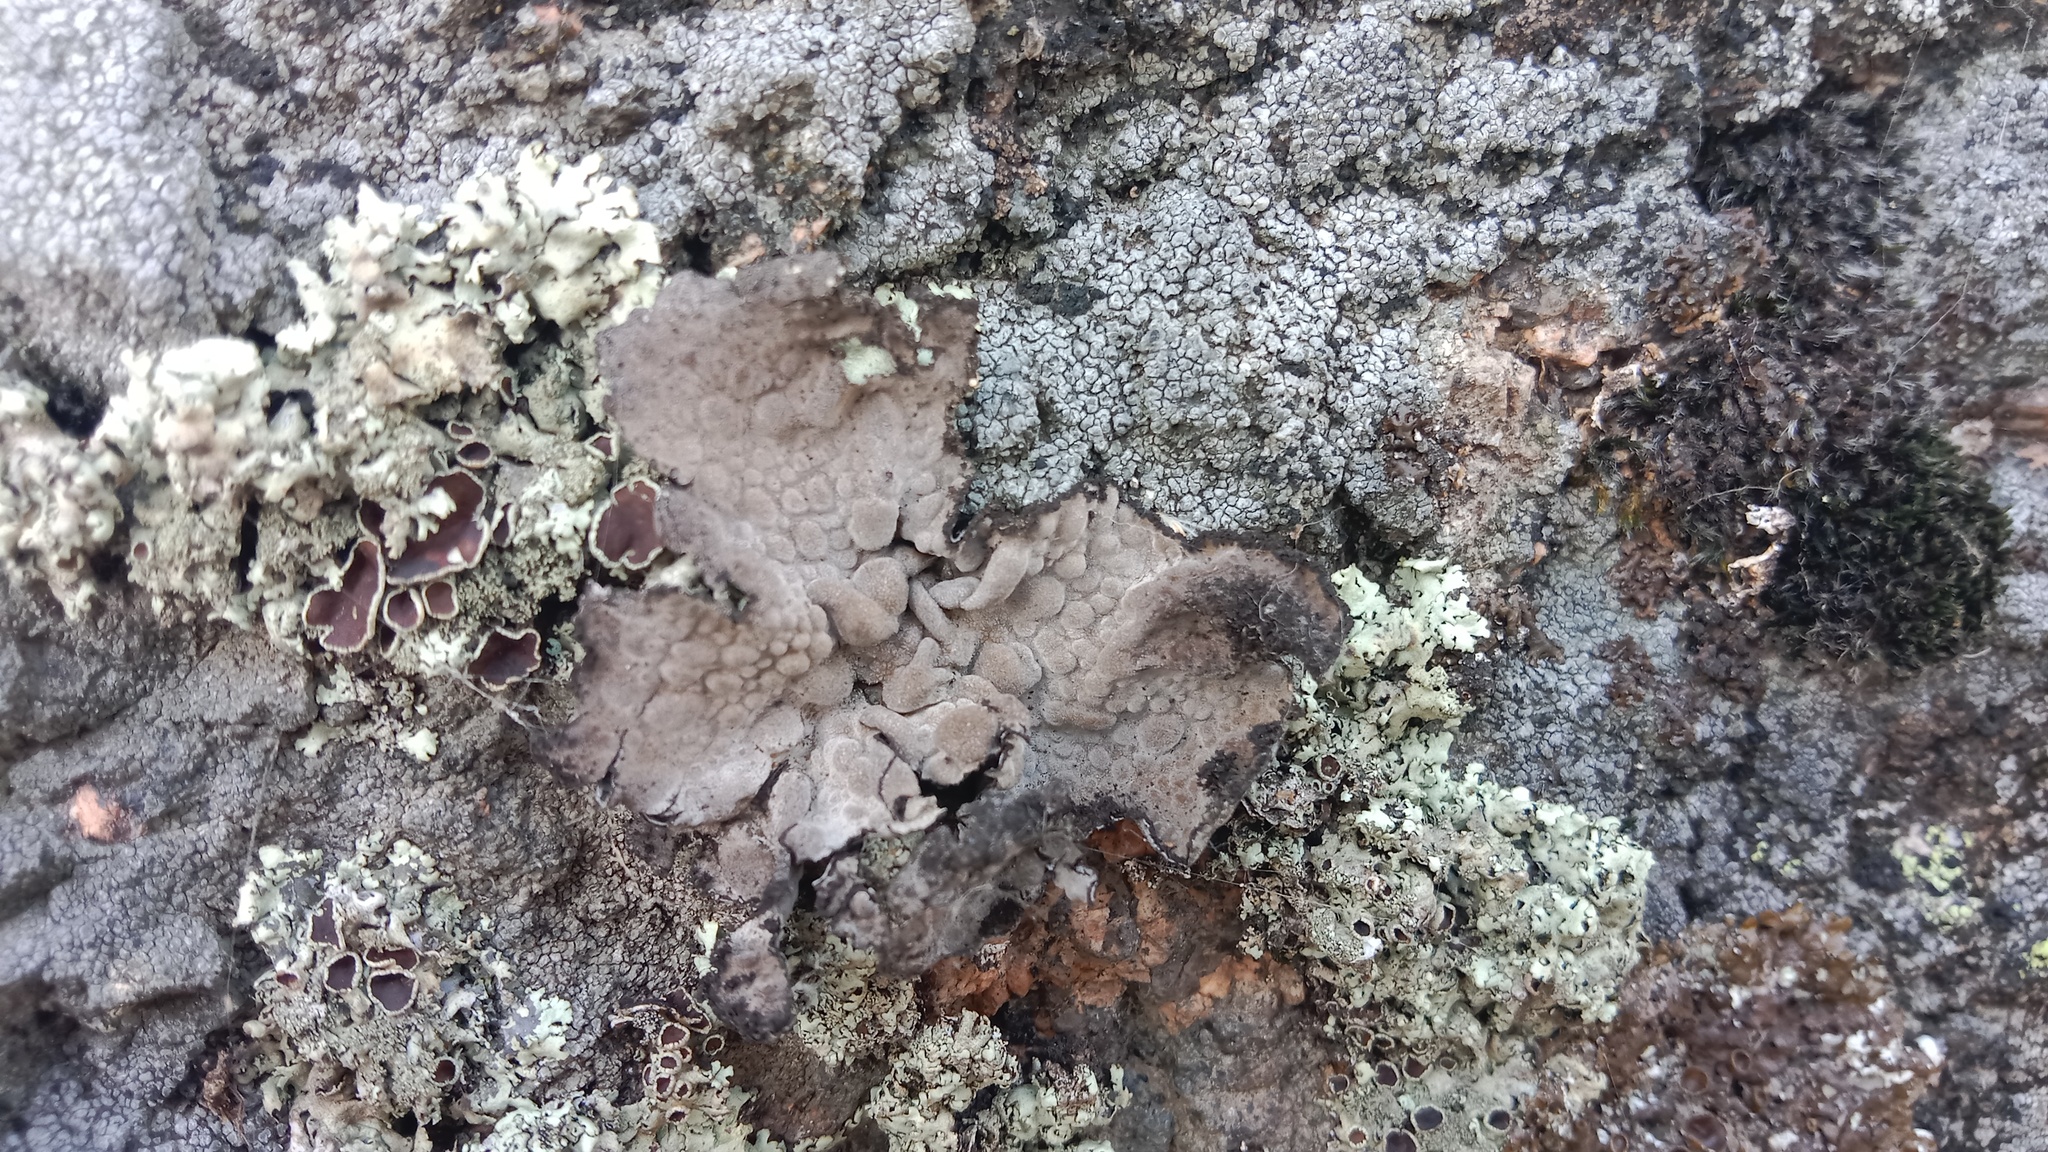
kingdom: Fungi
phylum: Ascomycota
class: Lecanoromycetes
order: Umbilicariales
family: Umbilicariaceae
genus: Lasallia
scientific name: Lasallia pustulata
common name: Blistered toadskin lichen
